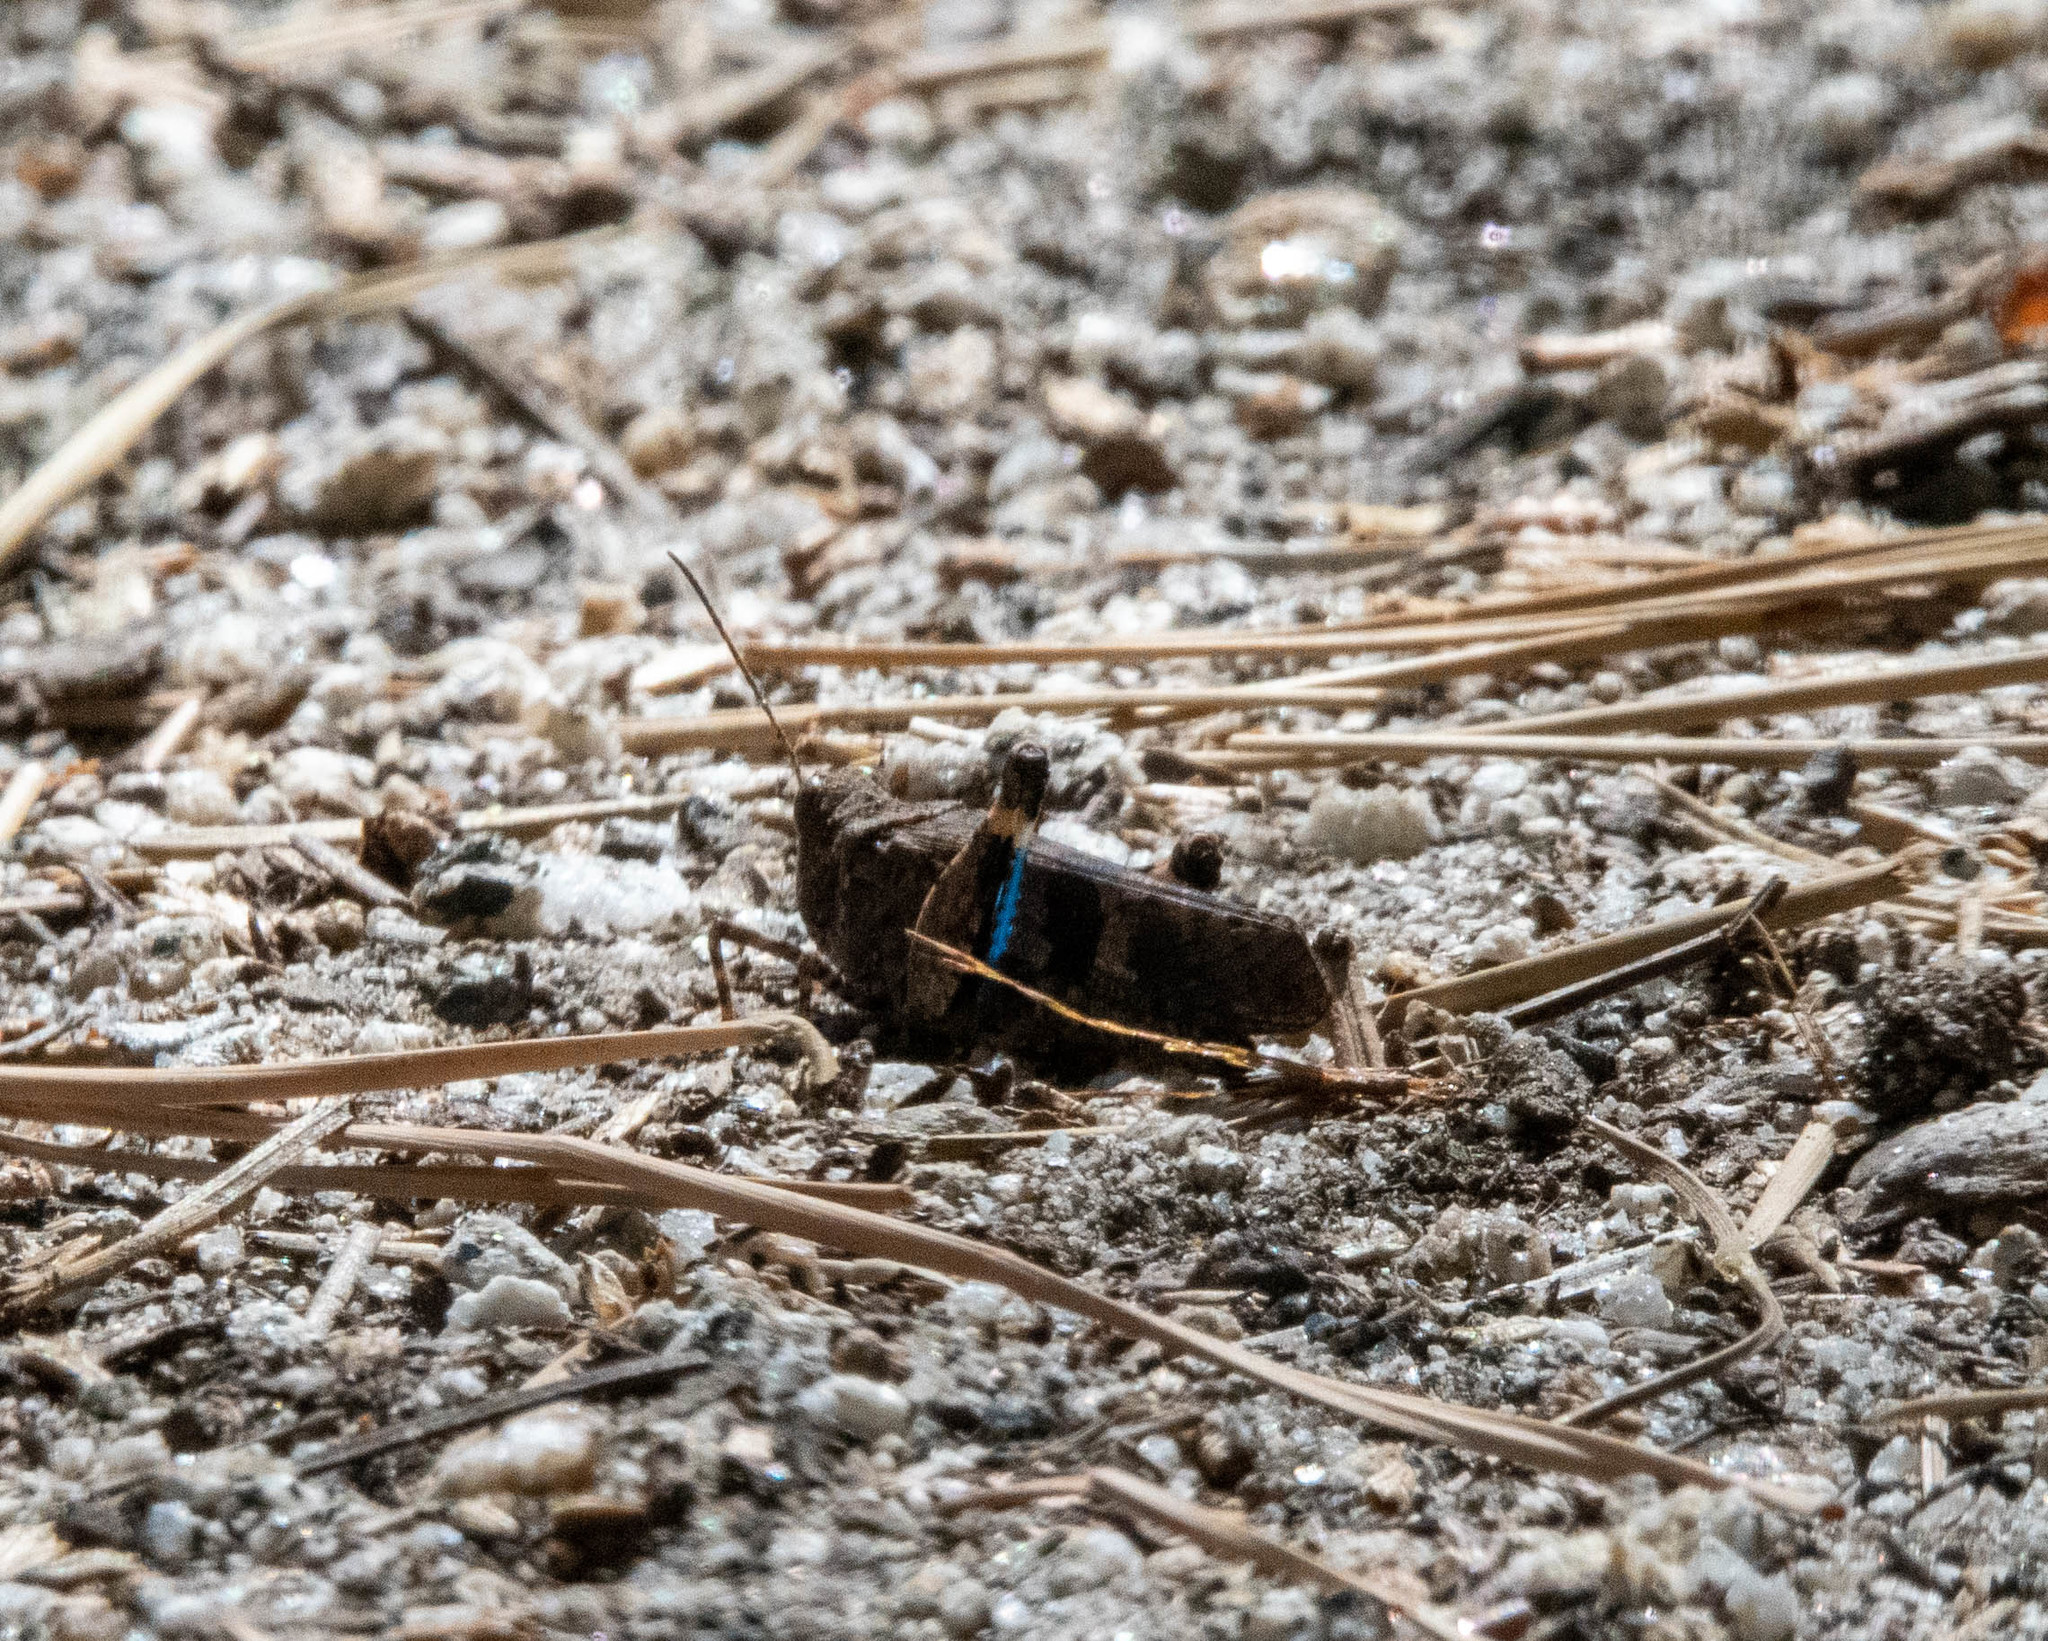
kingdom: Animalia
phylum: Arthropoda
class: Insecta
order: Orthoptera
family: Acrididae
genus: Trimerotropis
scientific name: Trimerotropis fontana
